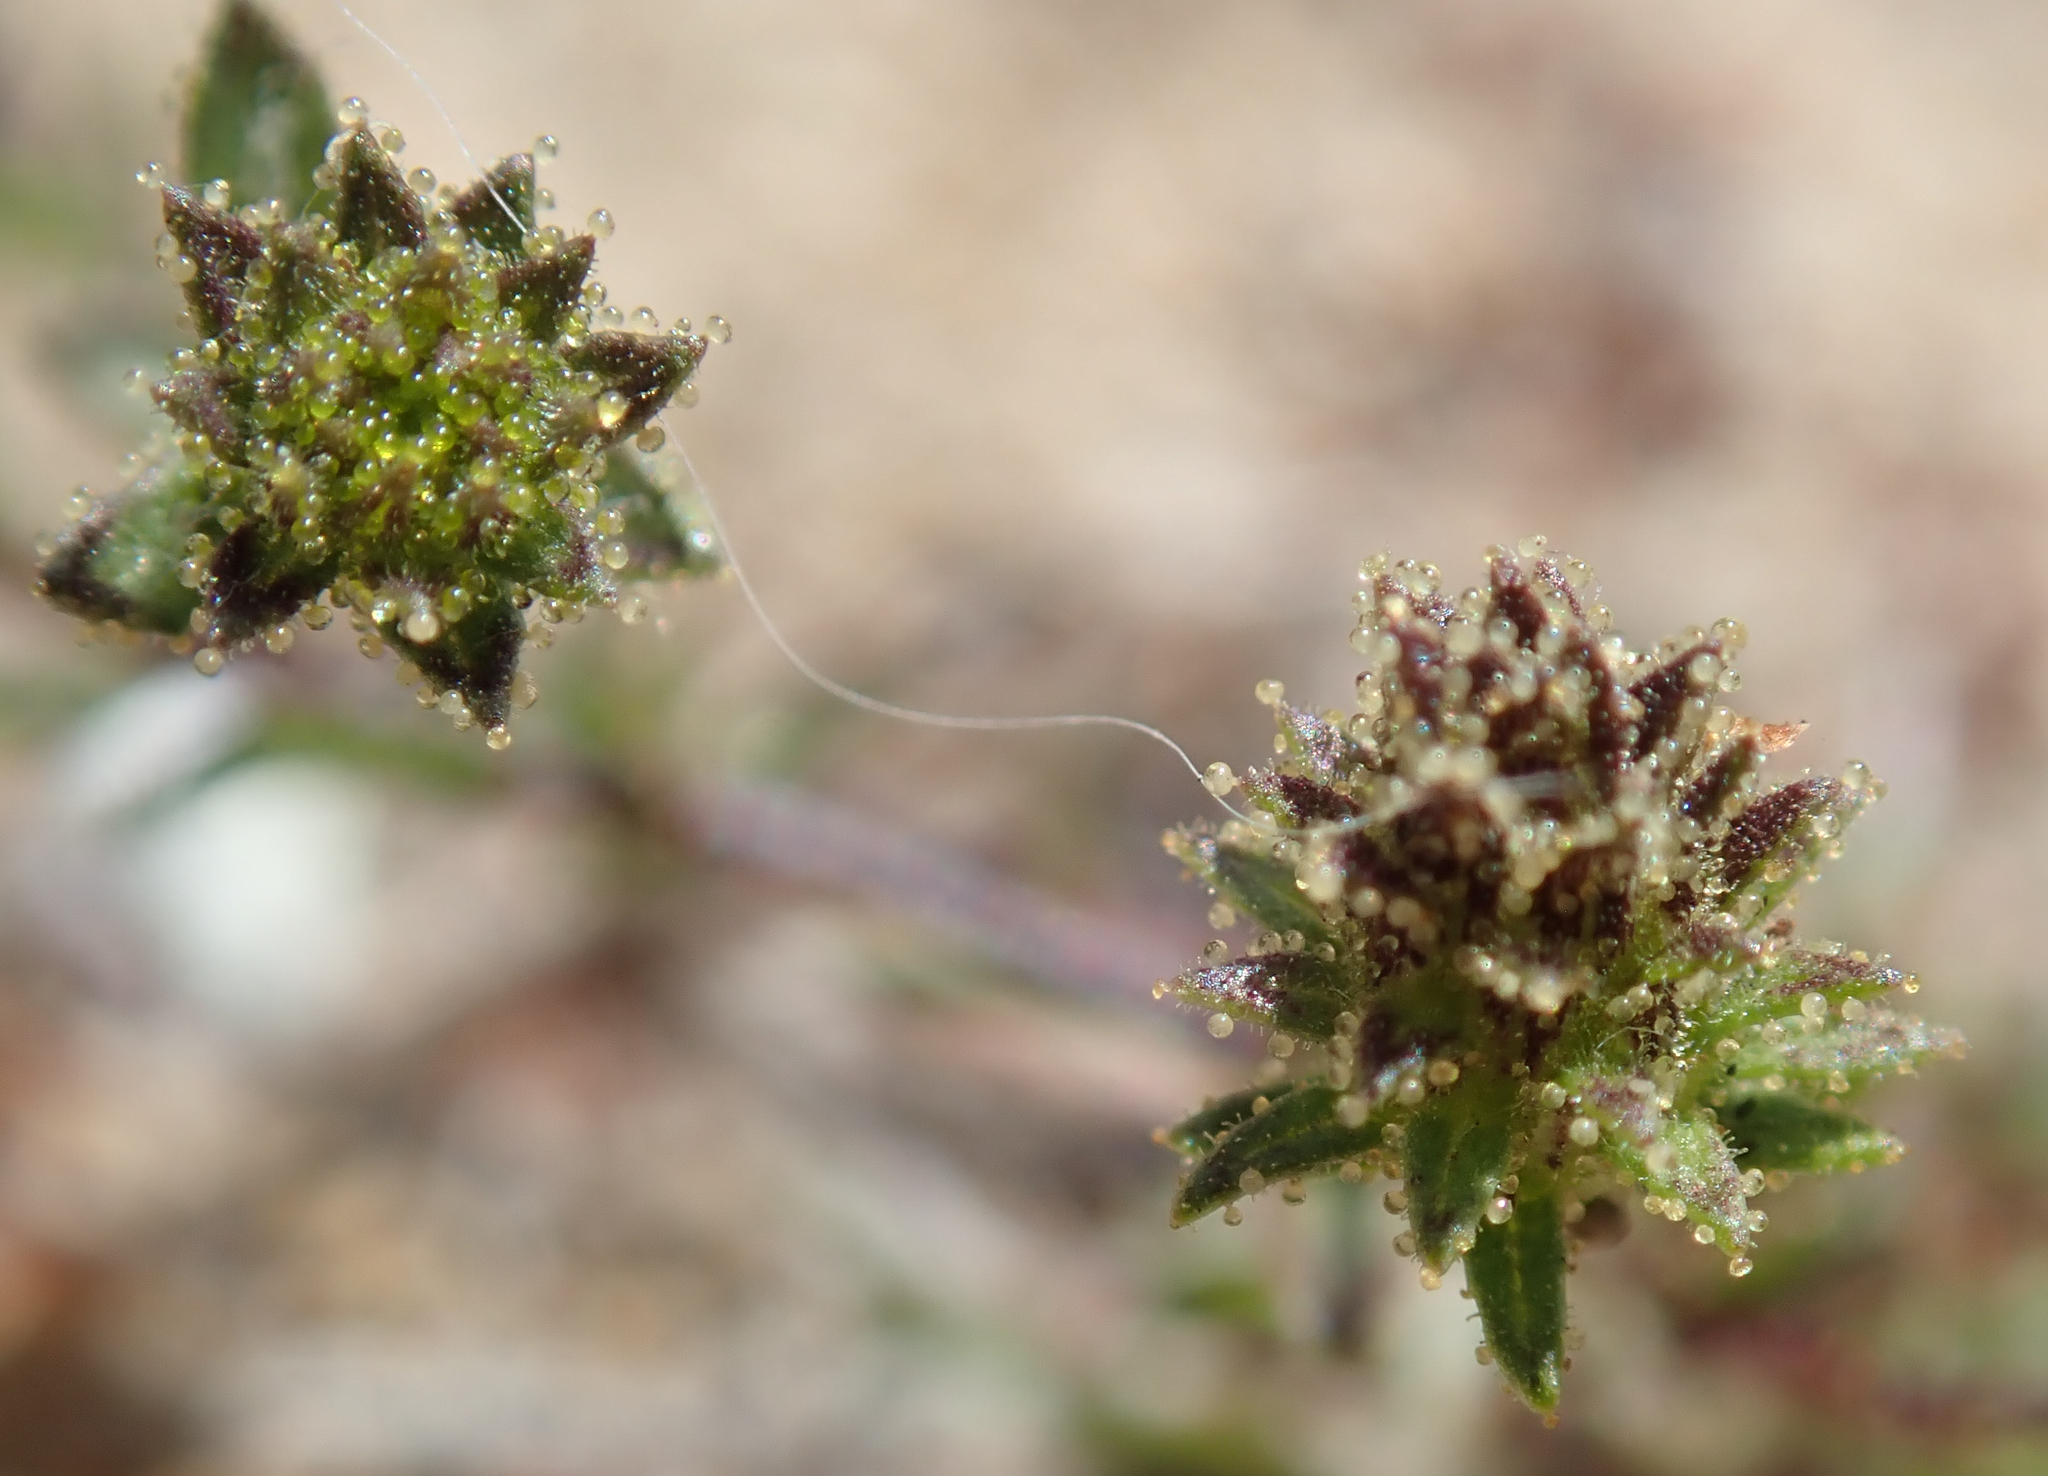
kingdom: Plantae
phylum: Tracheophyta
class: Magnoliopsida
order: Asterales
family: Asteraceae
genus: Lessingia
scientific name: Lessingia pectinata
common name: Valley lessingia
